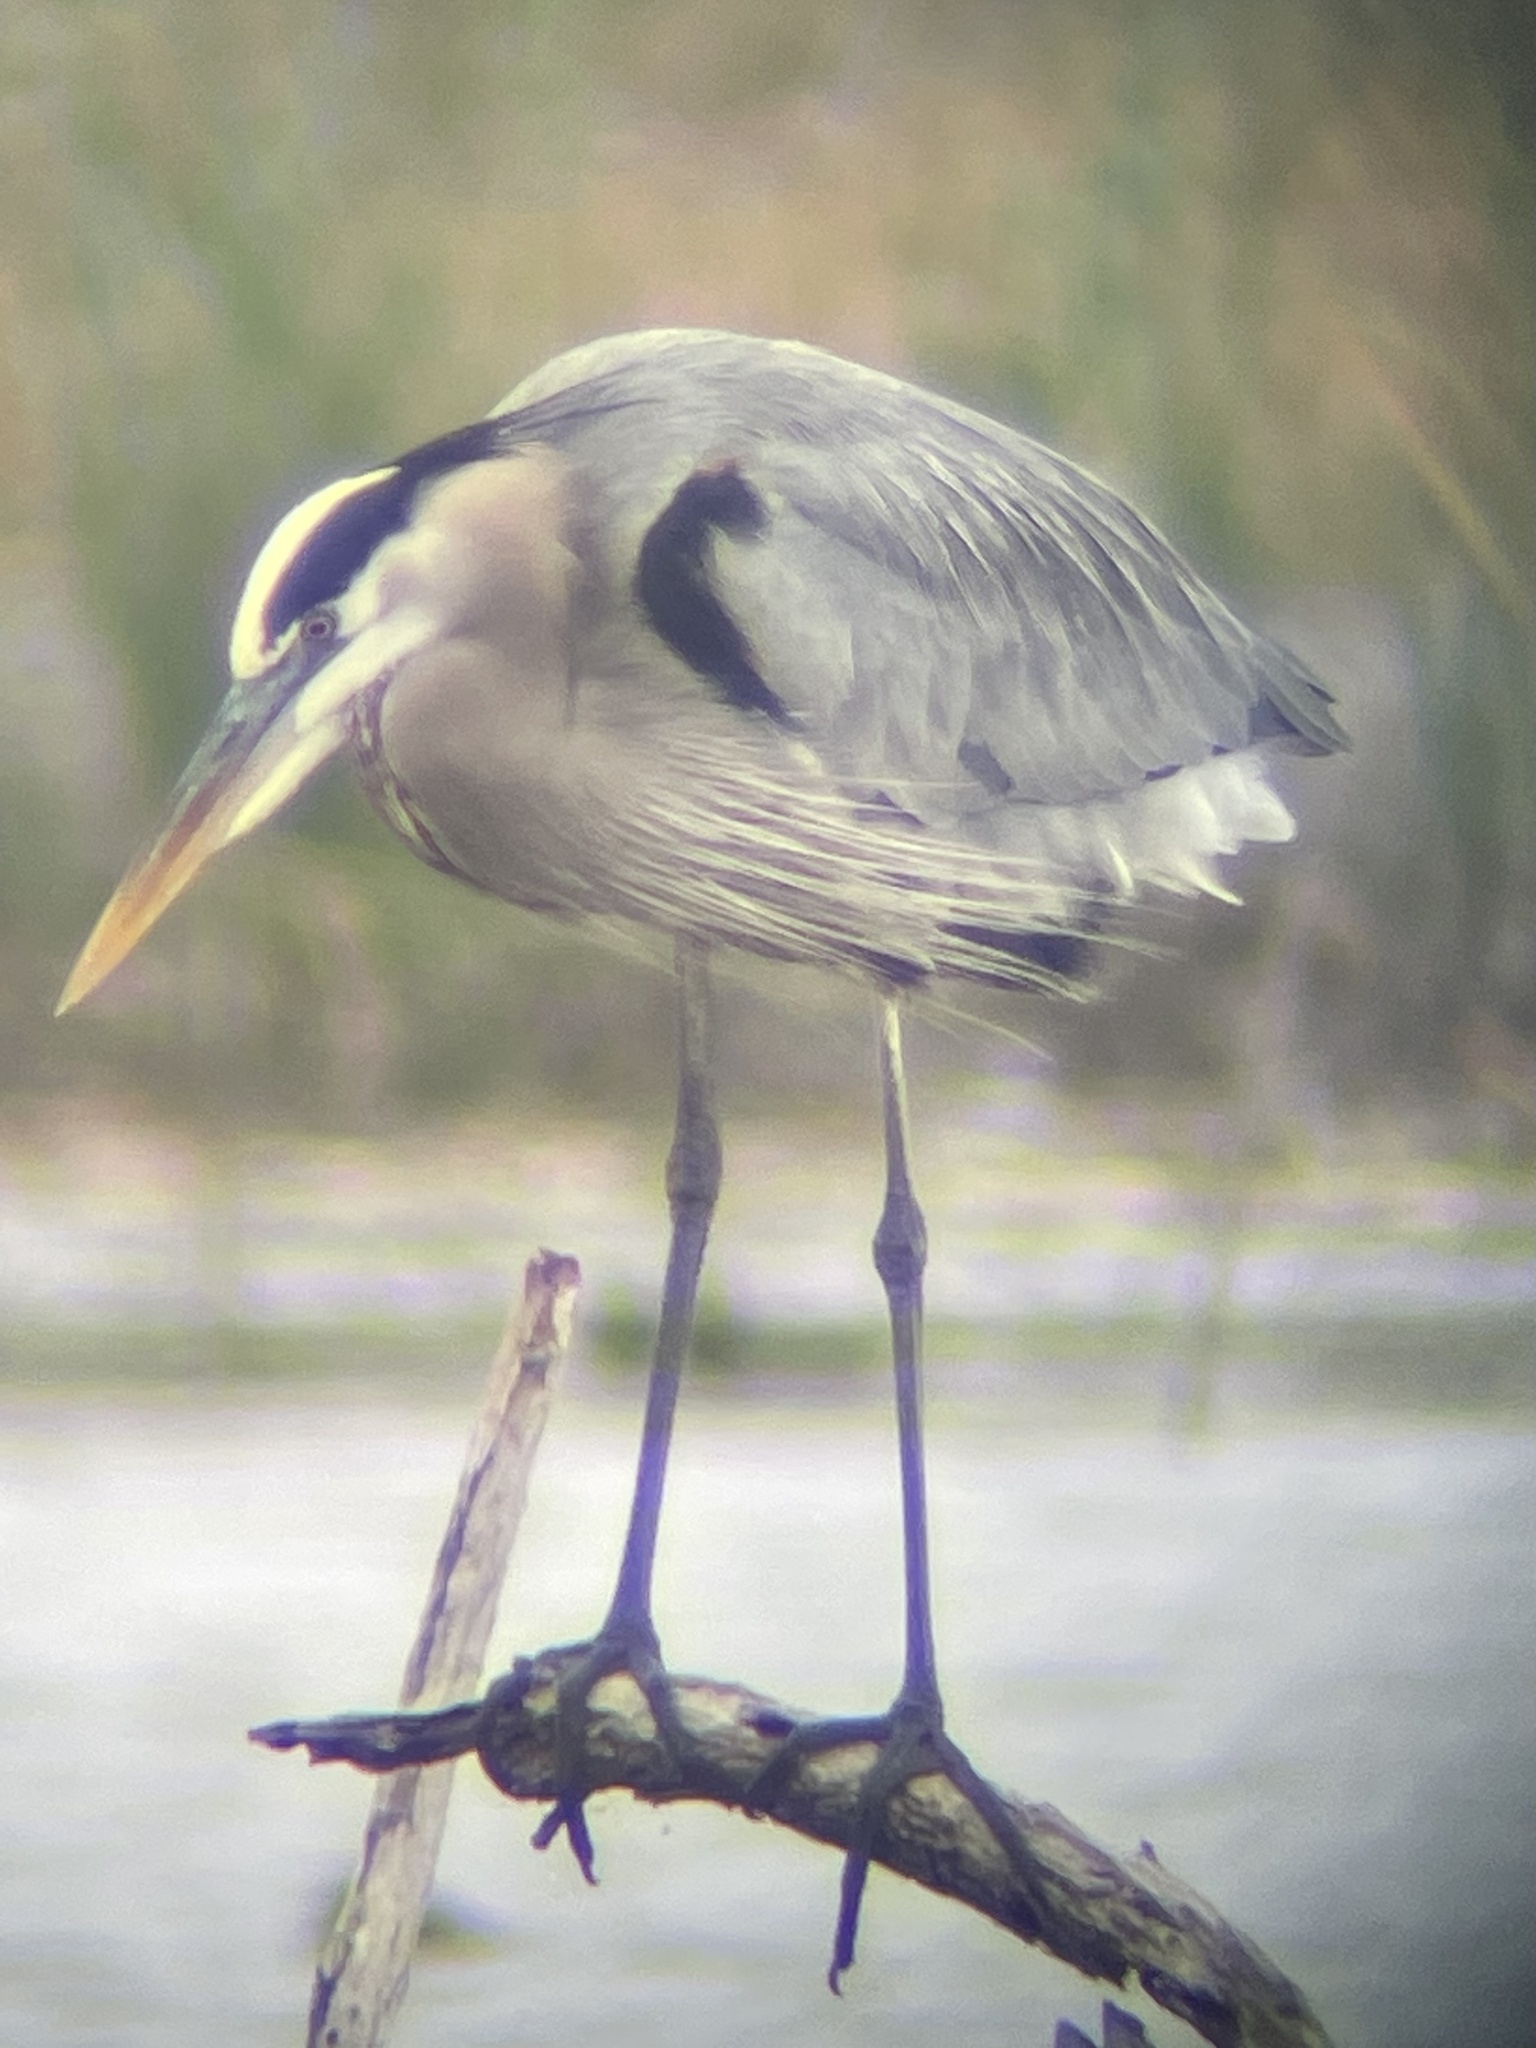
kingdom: Animalia
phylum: Chordata
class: Aves
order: Pelecaniformes
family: Ardeidae
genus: Ardea
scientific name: Ardea herodias
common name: Great blue heron
